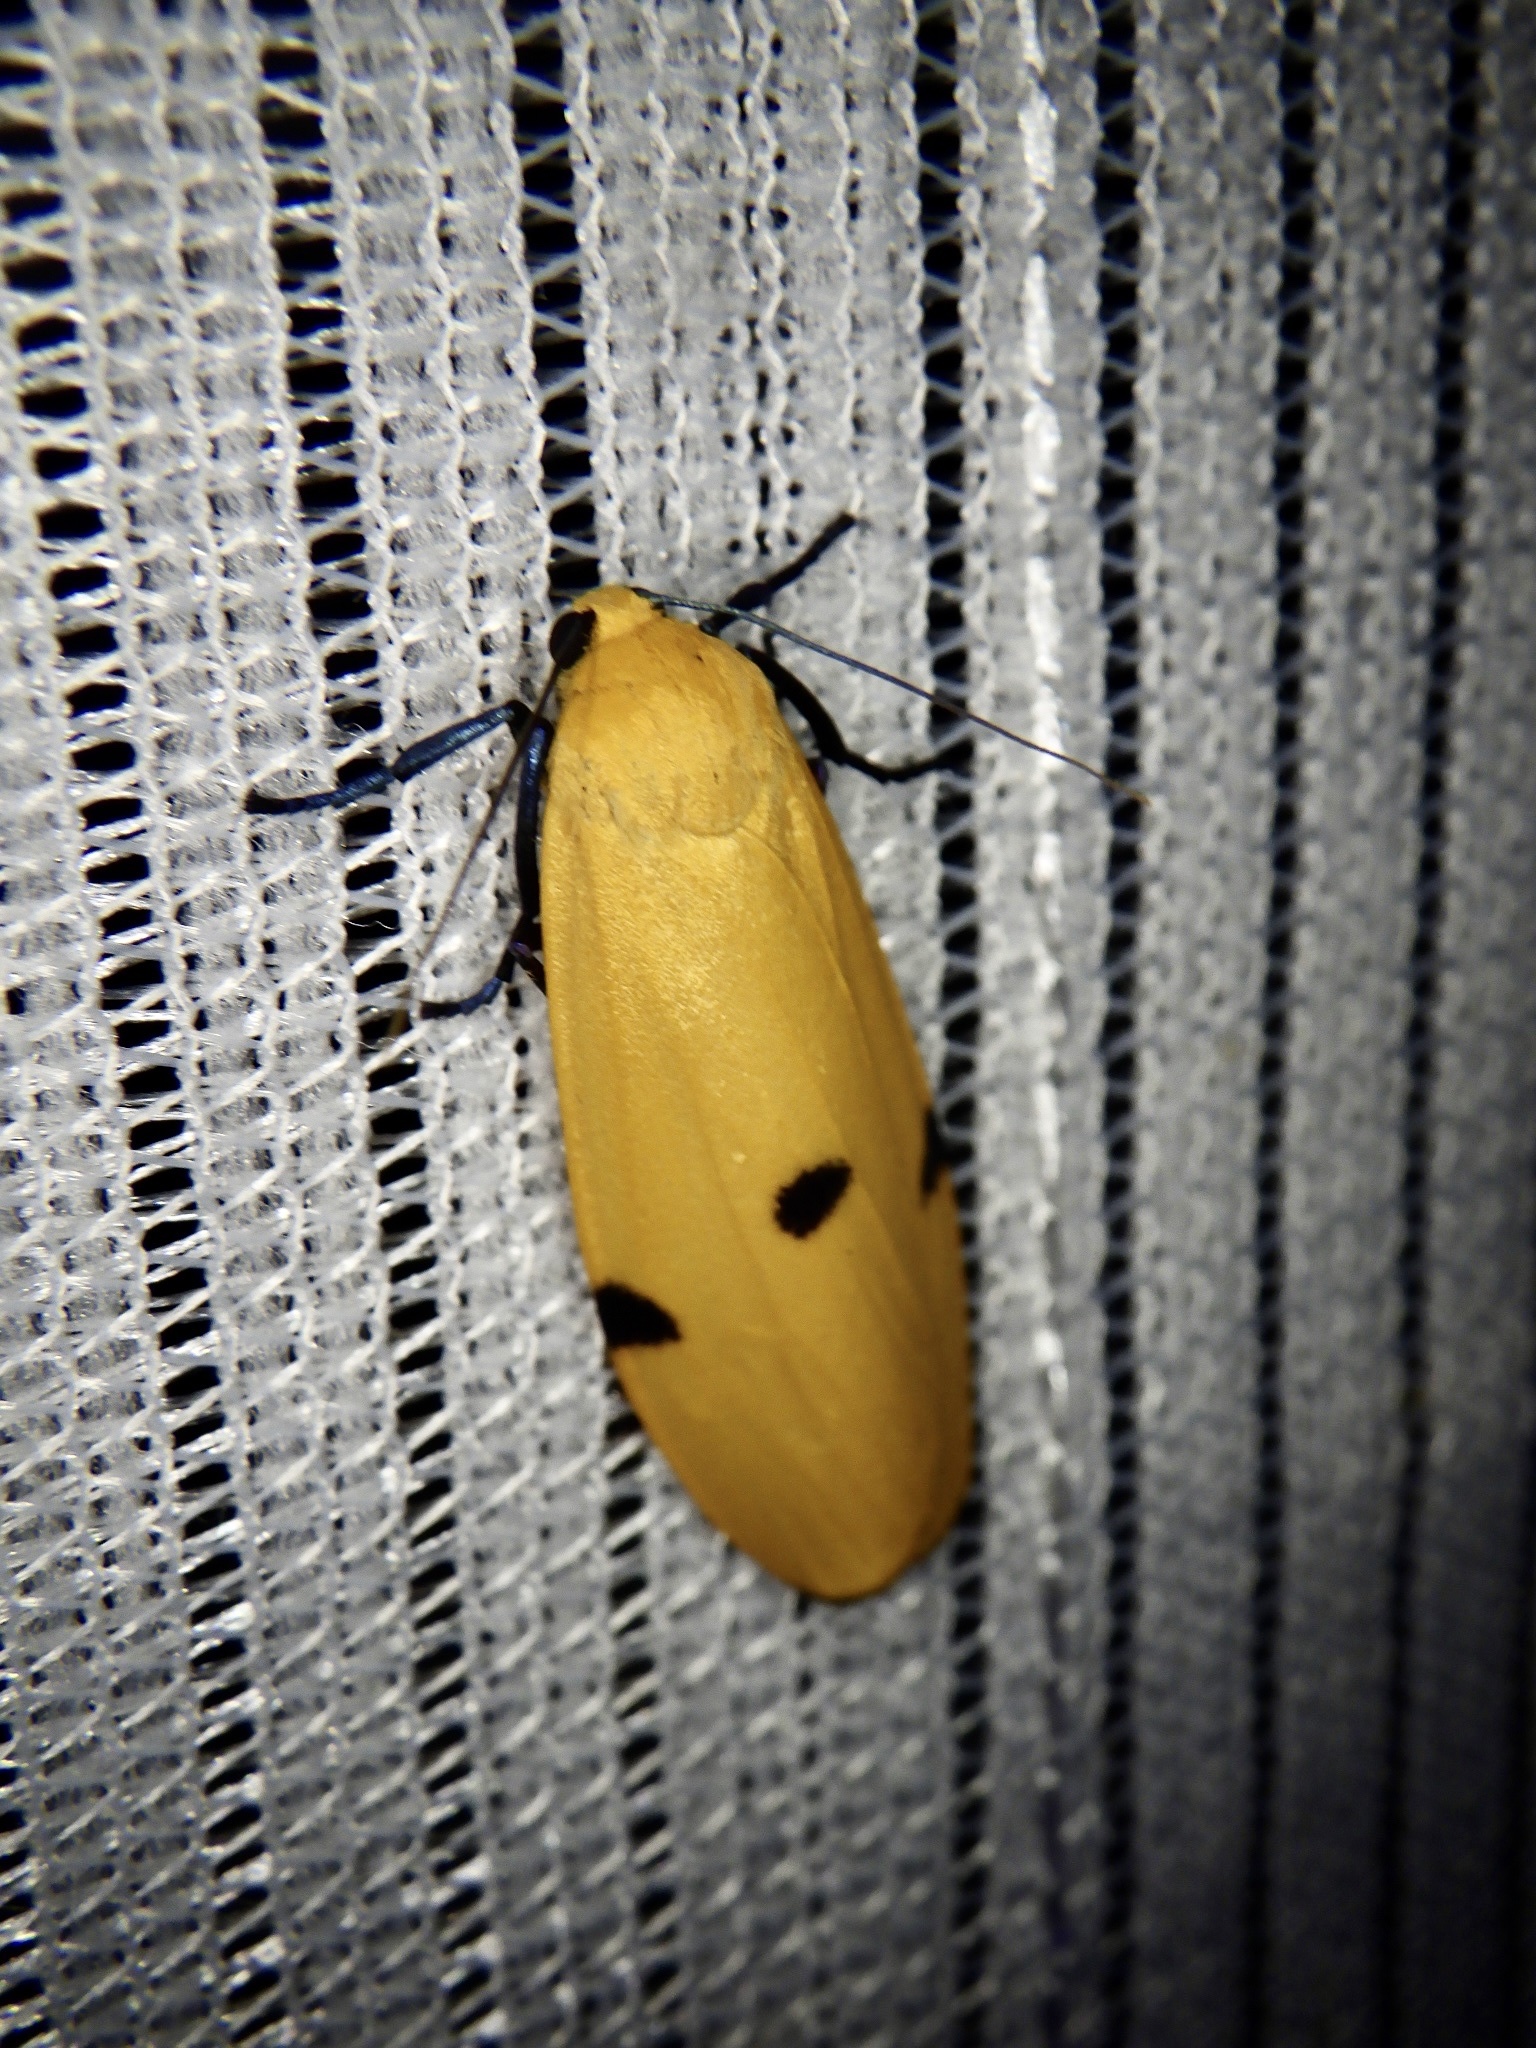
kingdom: Animalia
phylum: Arthropoda
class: Insecta
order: Lepidoptera
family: Erebidae
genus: Lithosia
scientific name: Lithosia quadra
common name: Four-spotted footman
